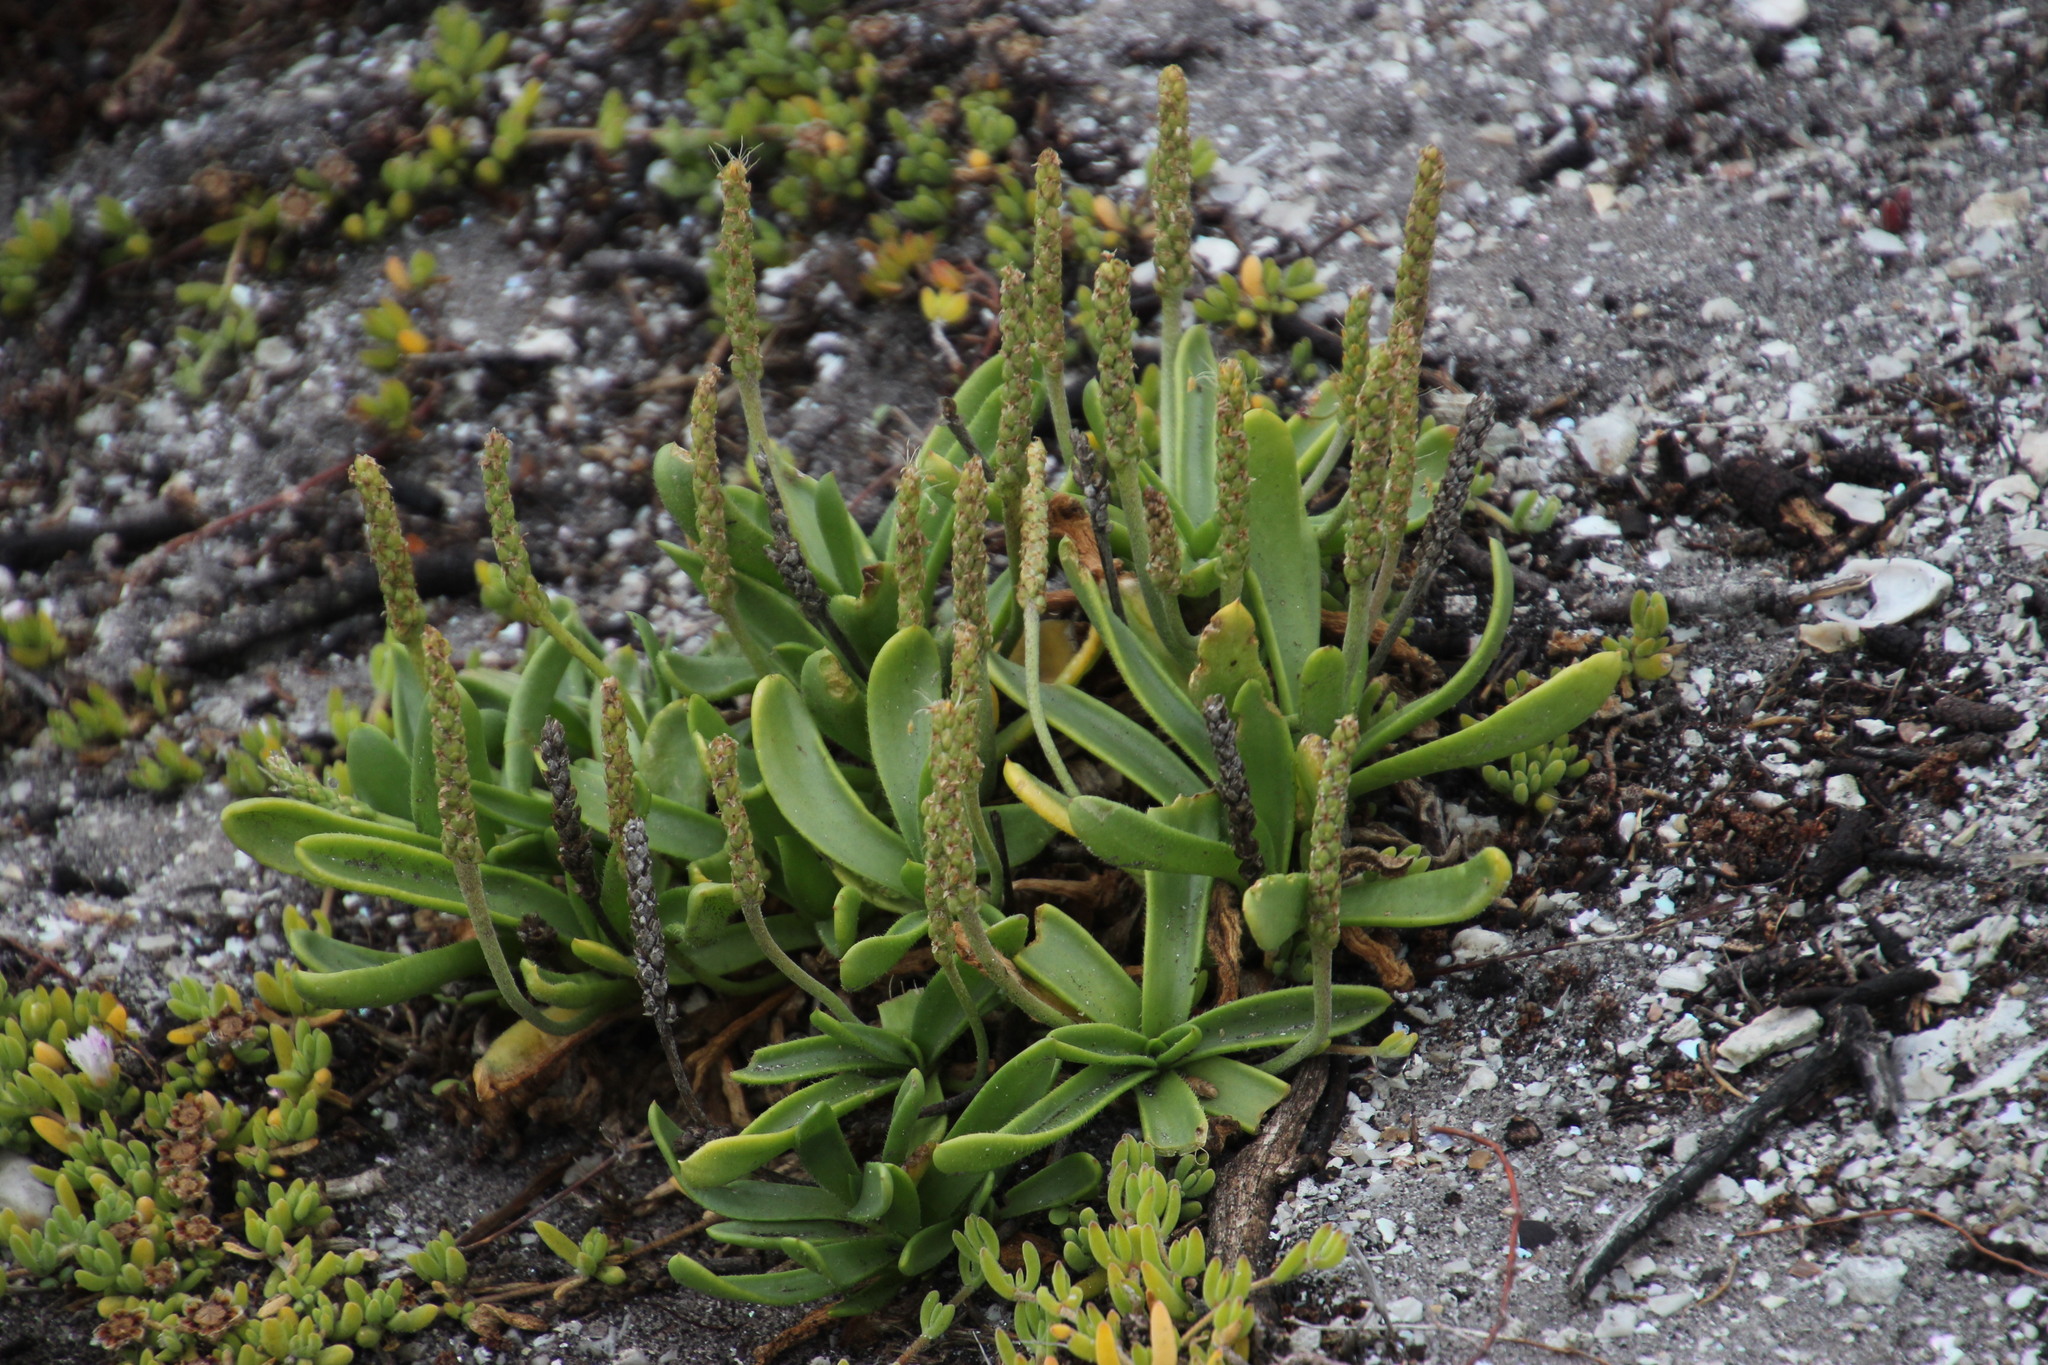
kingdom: Plantae
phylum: Tracheophyta
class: Magnoliopsida
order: Lamiales
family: Plantaginaceae
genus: Plantago
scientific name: Plantago carnosa
